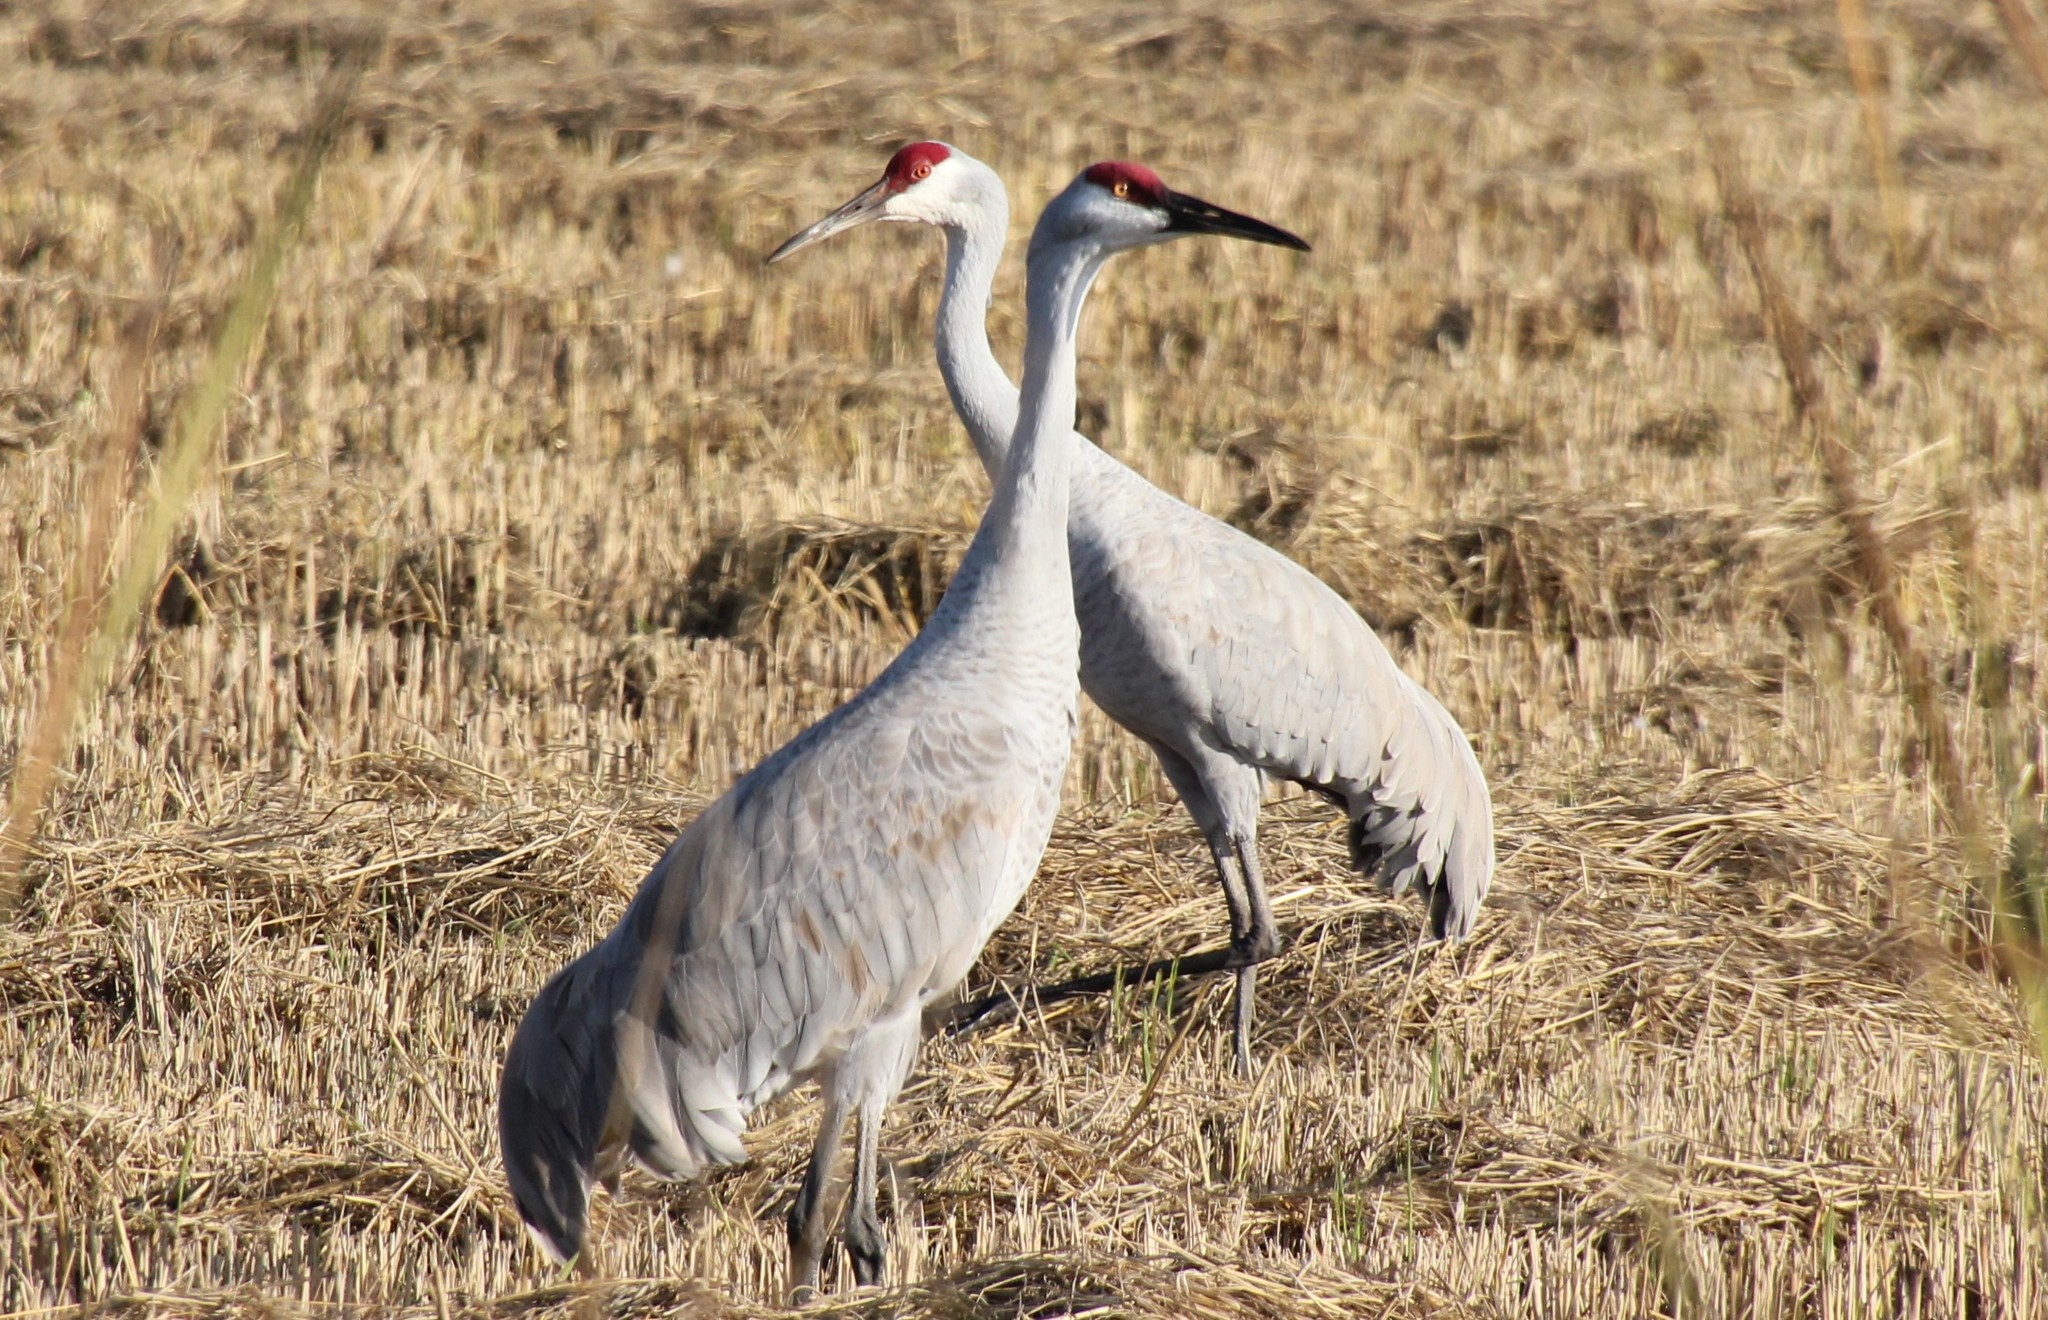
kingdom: Animalia
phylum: Chordata
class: Aves
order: Gruiformes
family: Gruidae
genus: Grus
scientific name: Grus canadensis
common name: Sandhill crane
